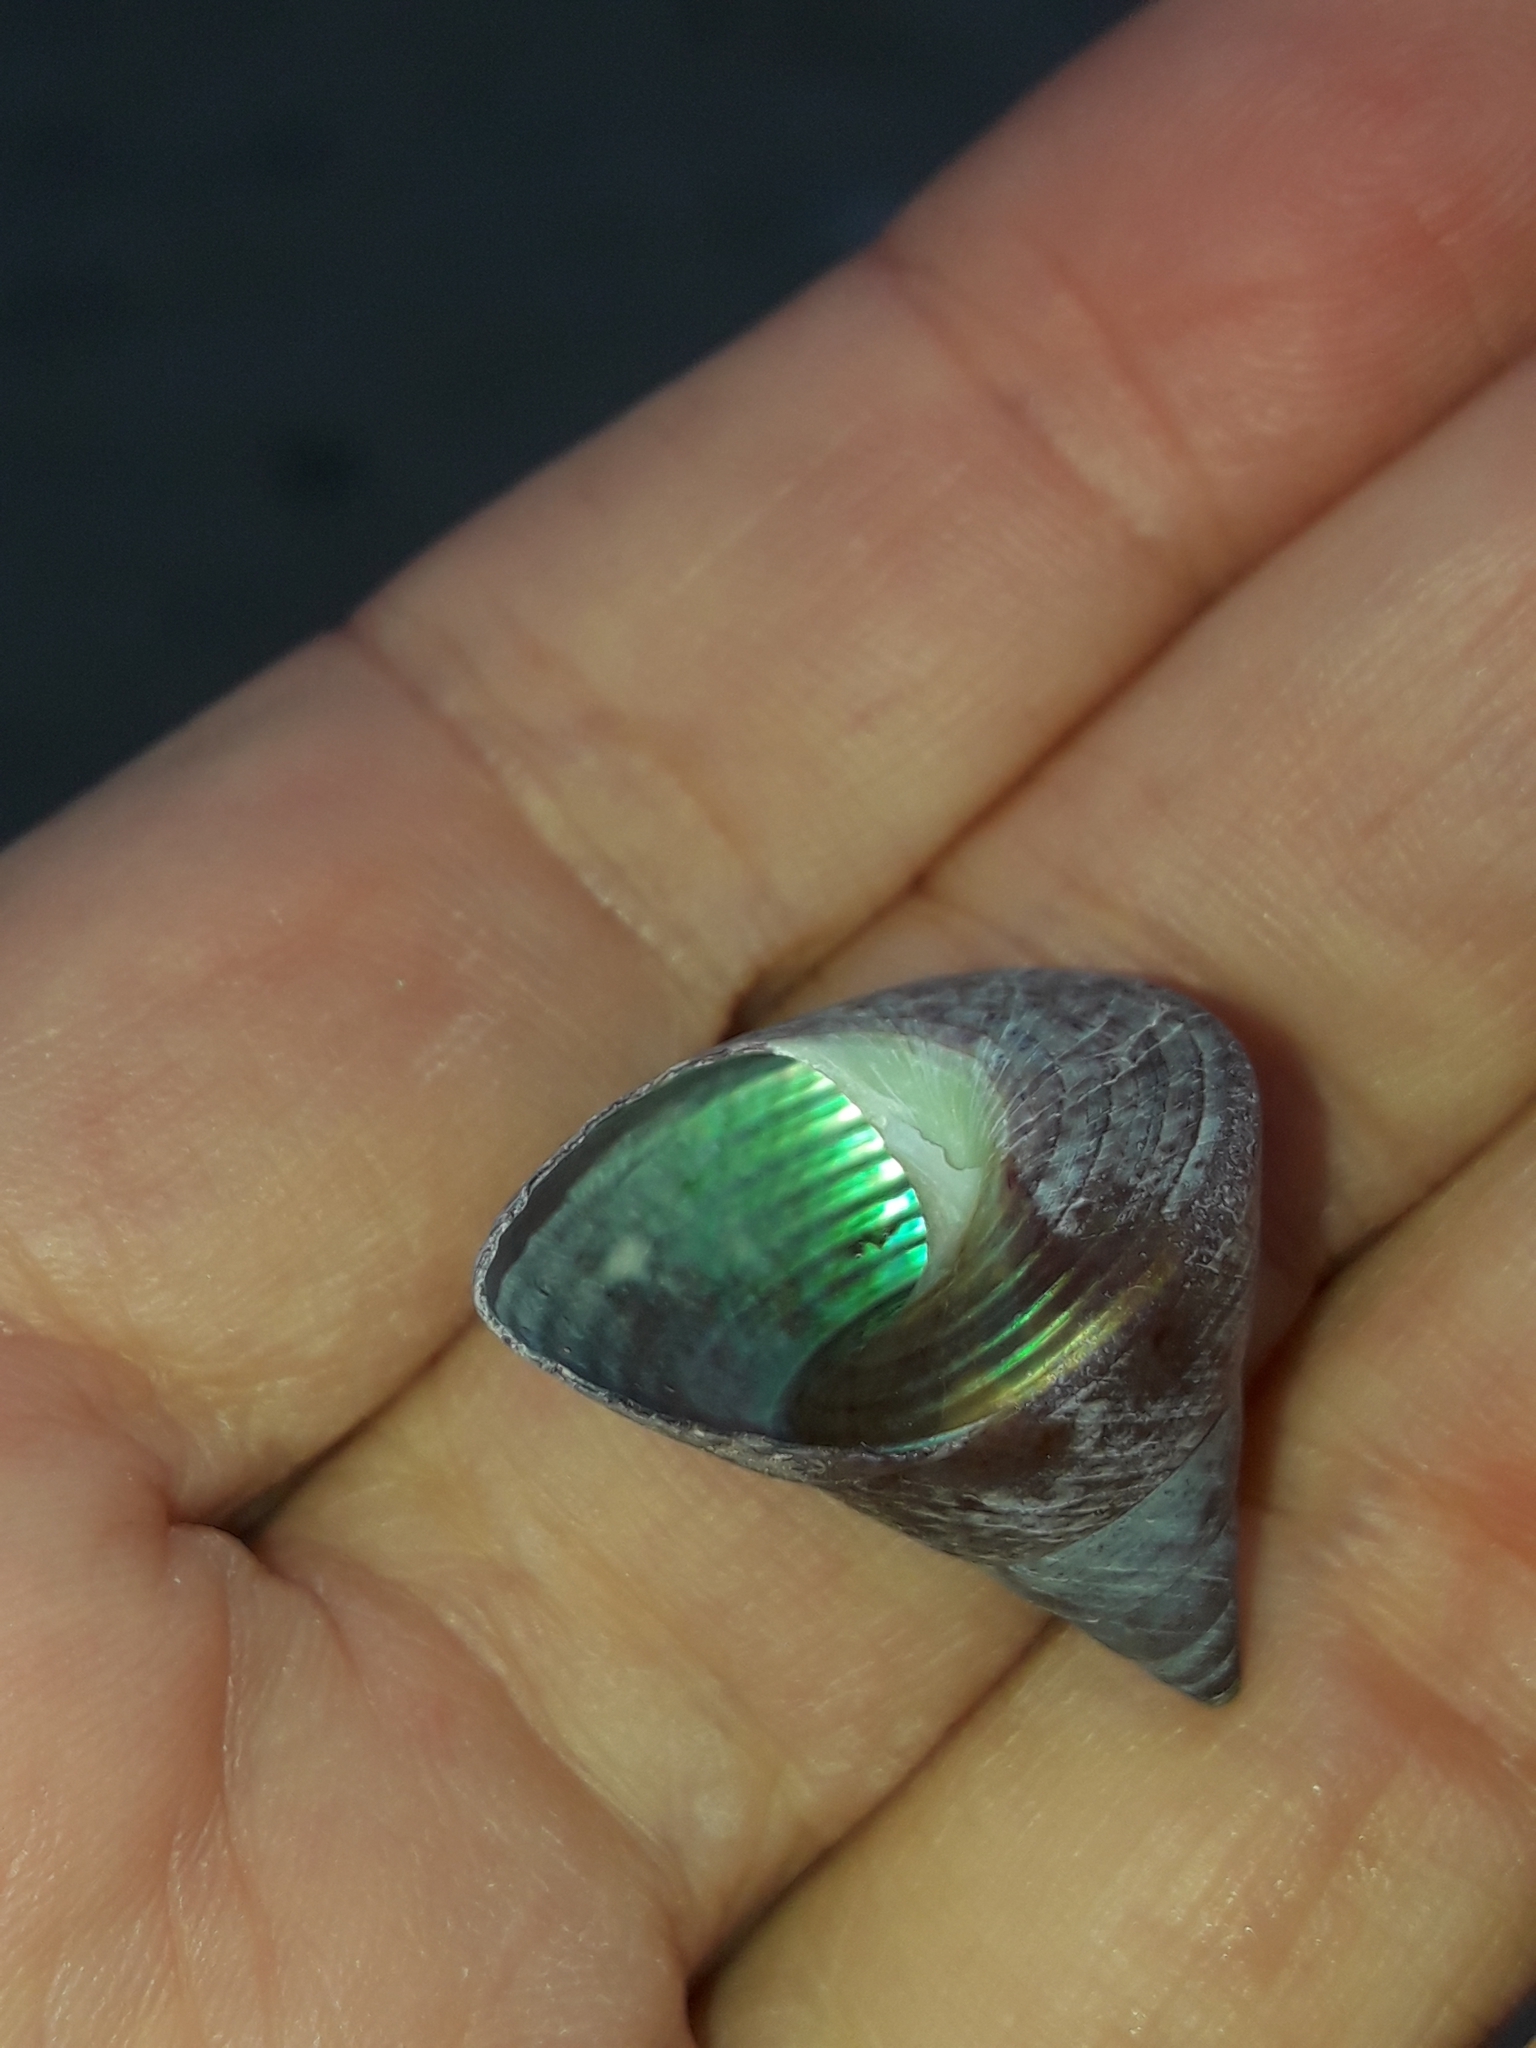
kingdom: Animalia
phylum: Mollusca
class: Gastropoda
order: Trochida
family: Trochidae
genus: Cantharidus
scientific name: Cantharidus opalus
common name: Opal jewel topsnail
